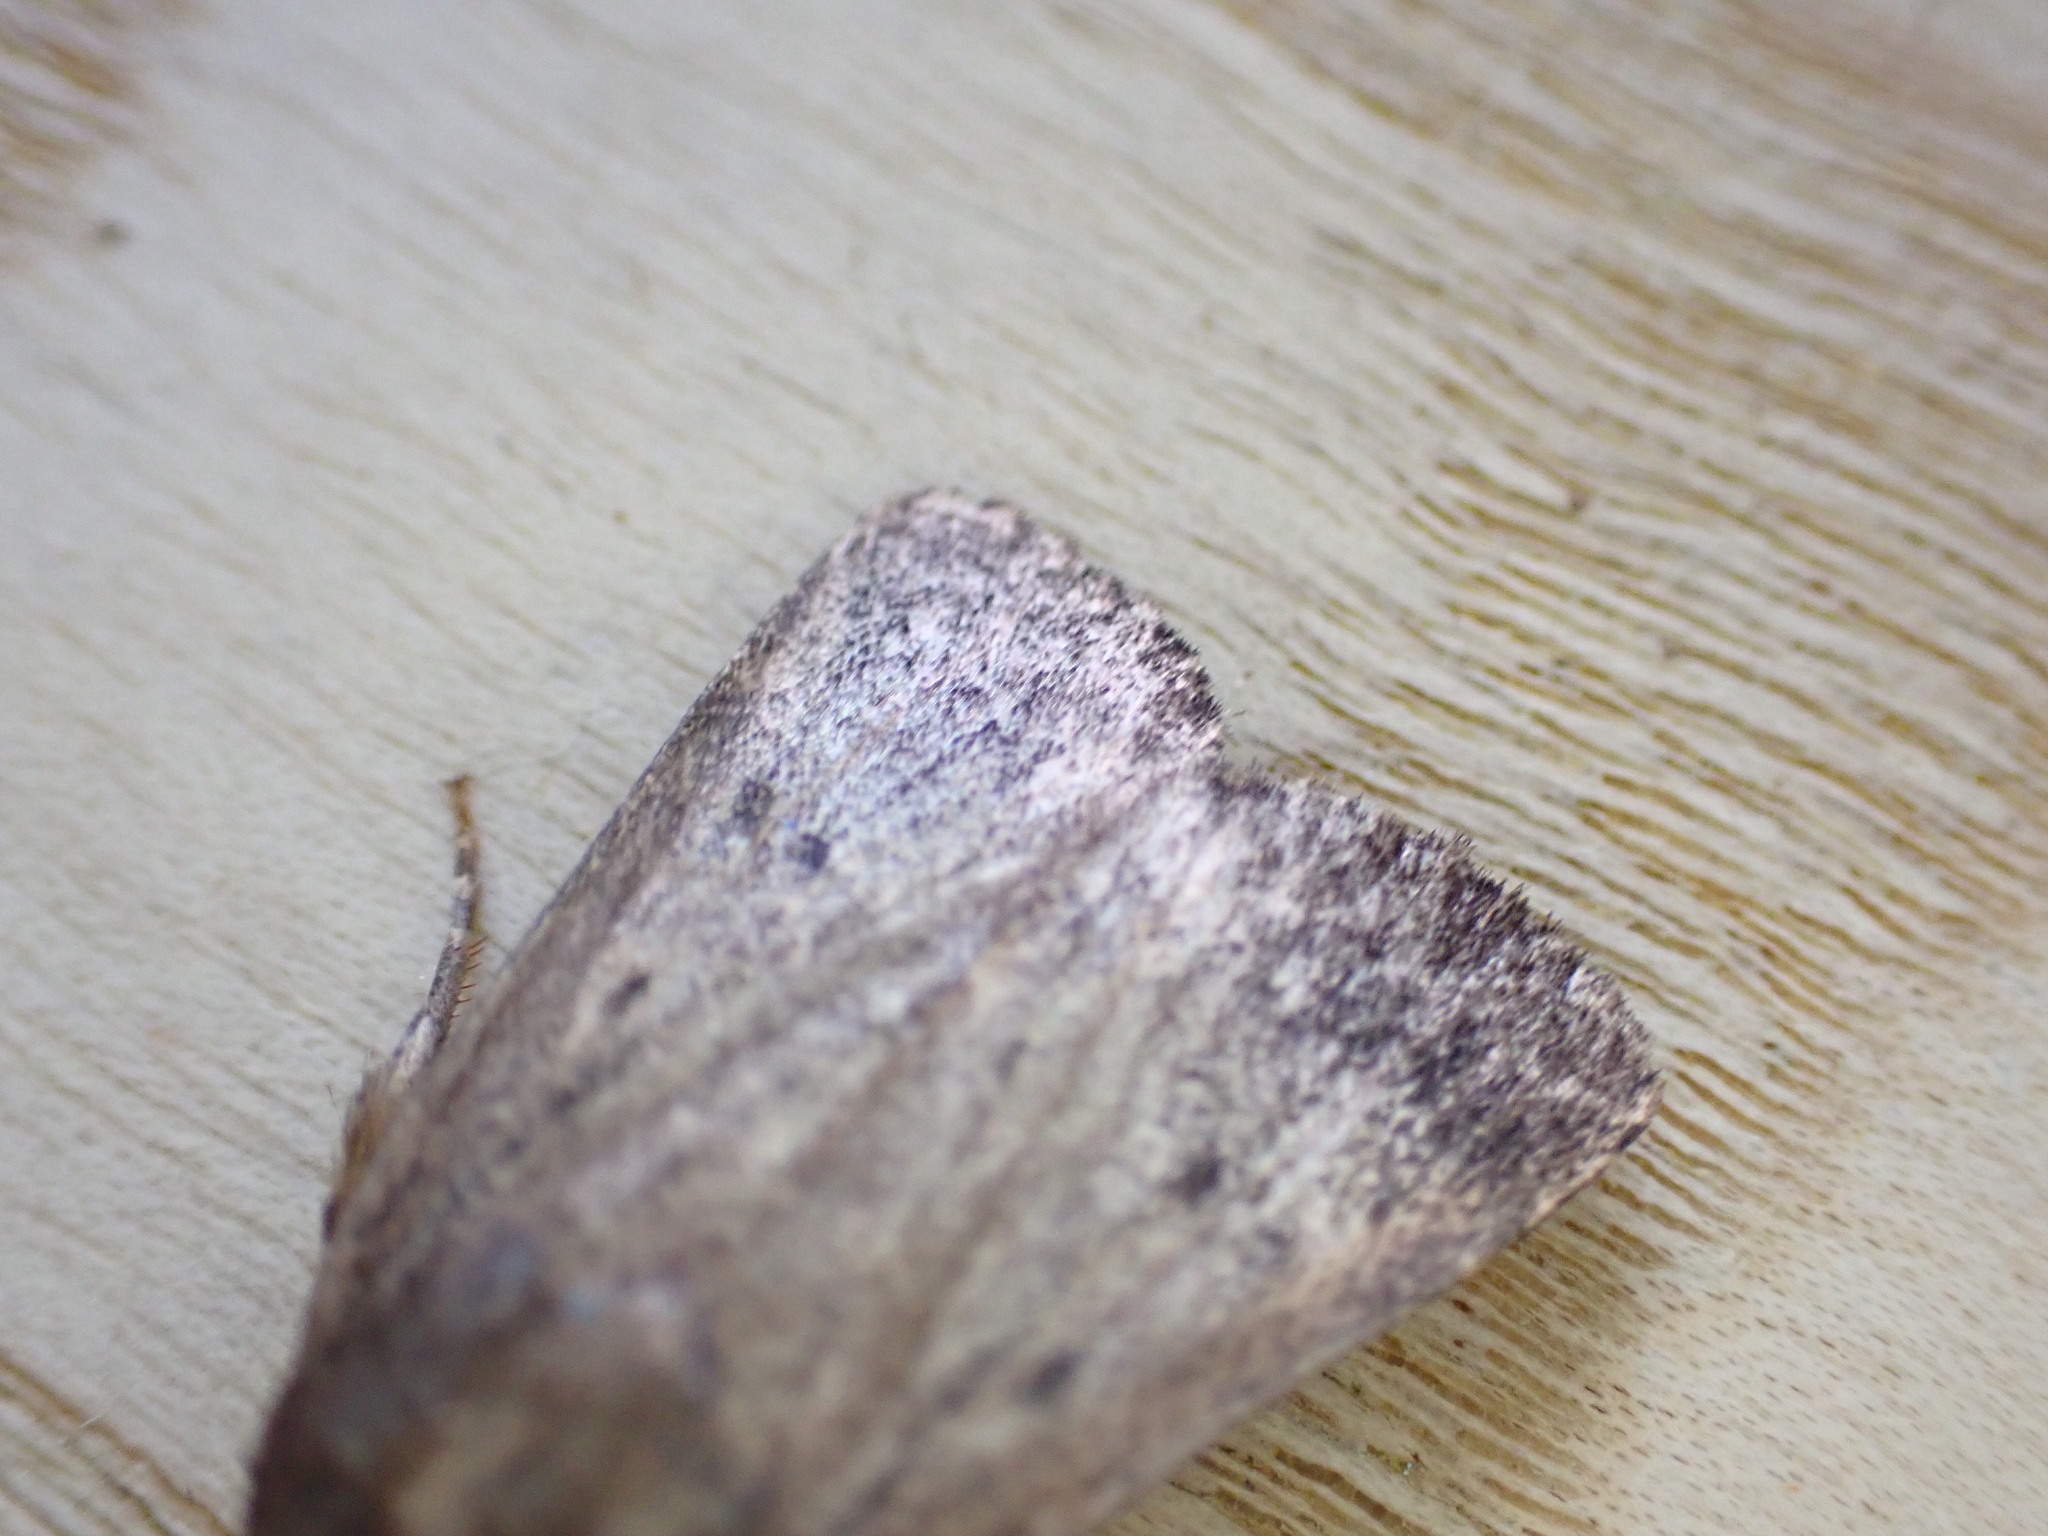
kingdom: Animalia
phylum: Arthropoda
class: Insecta
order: Lepidoptera
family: Noctuidae
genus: Amphipyra
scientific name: Amphipyra tragopoginis
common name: Mouse moth
